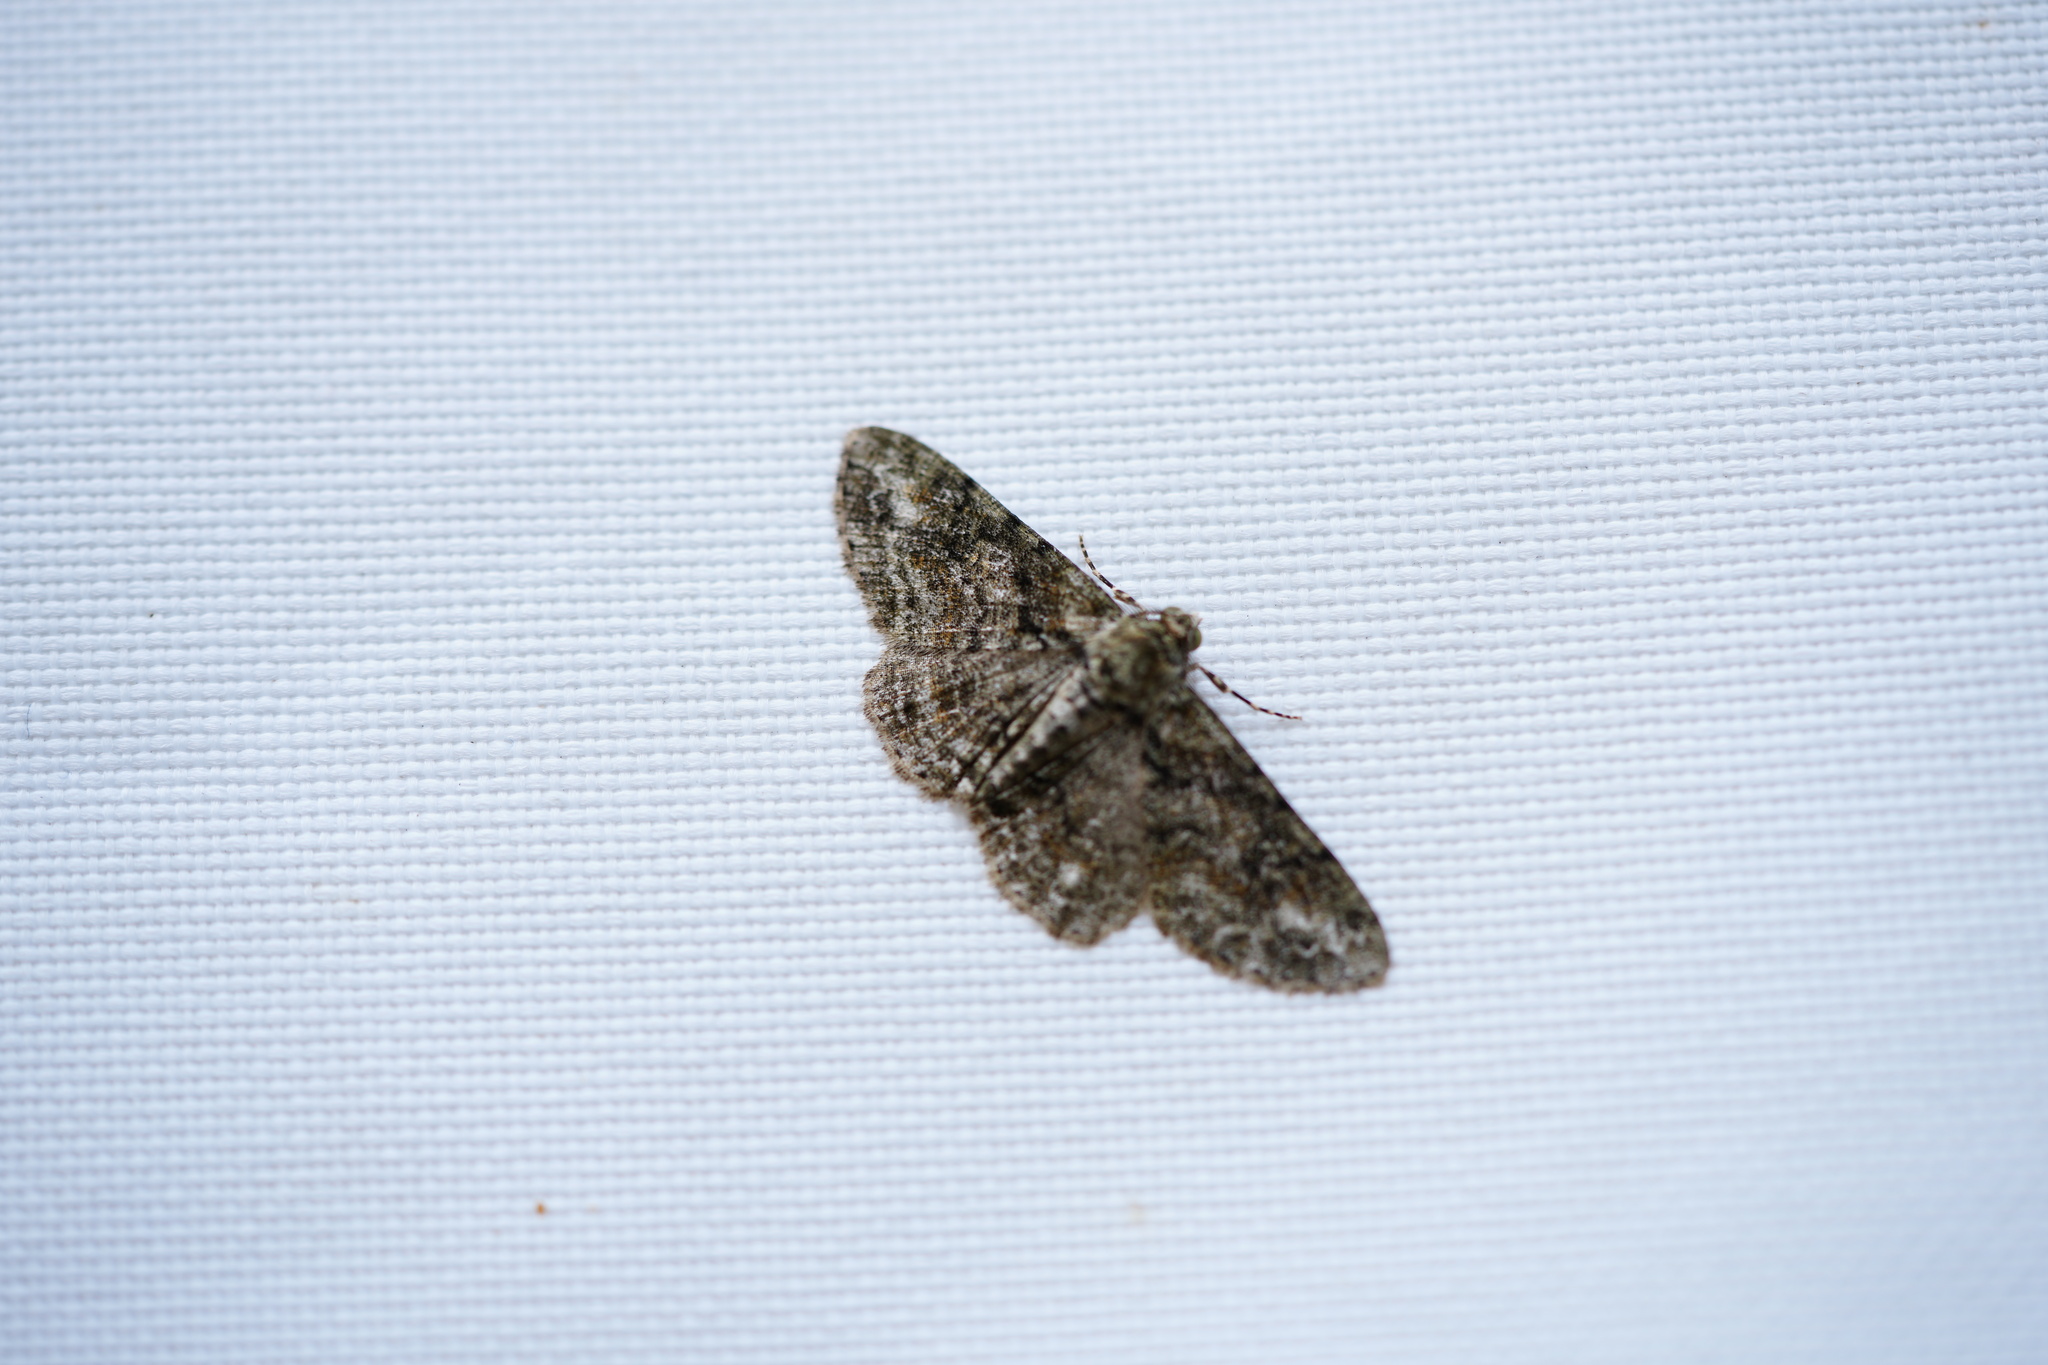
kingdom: Animalia
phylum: Arthropoda
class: Insecta
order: Lepidoptera
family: Geometridae
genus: Cleora
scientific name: Cleora sublunaria
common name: Double-lined gray
